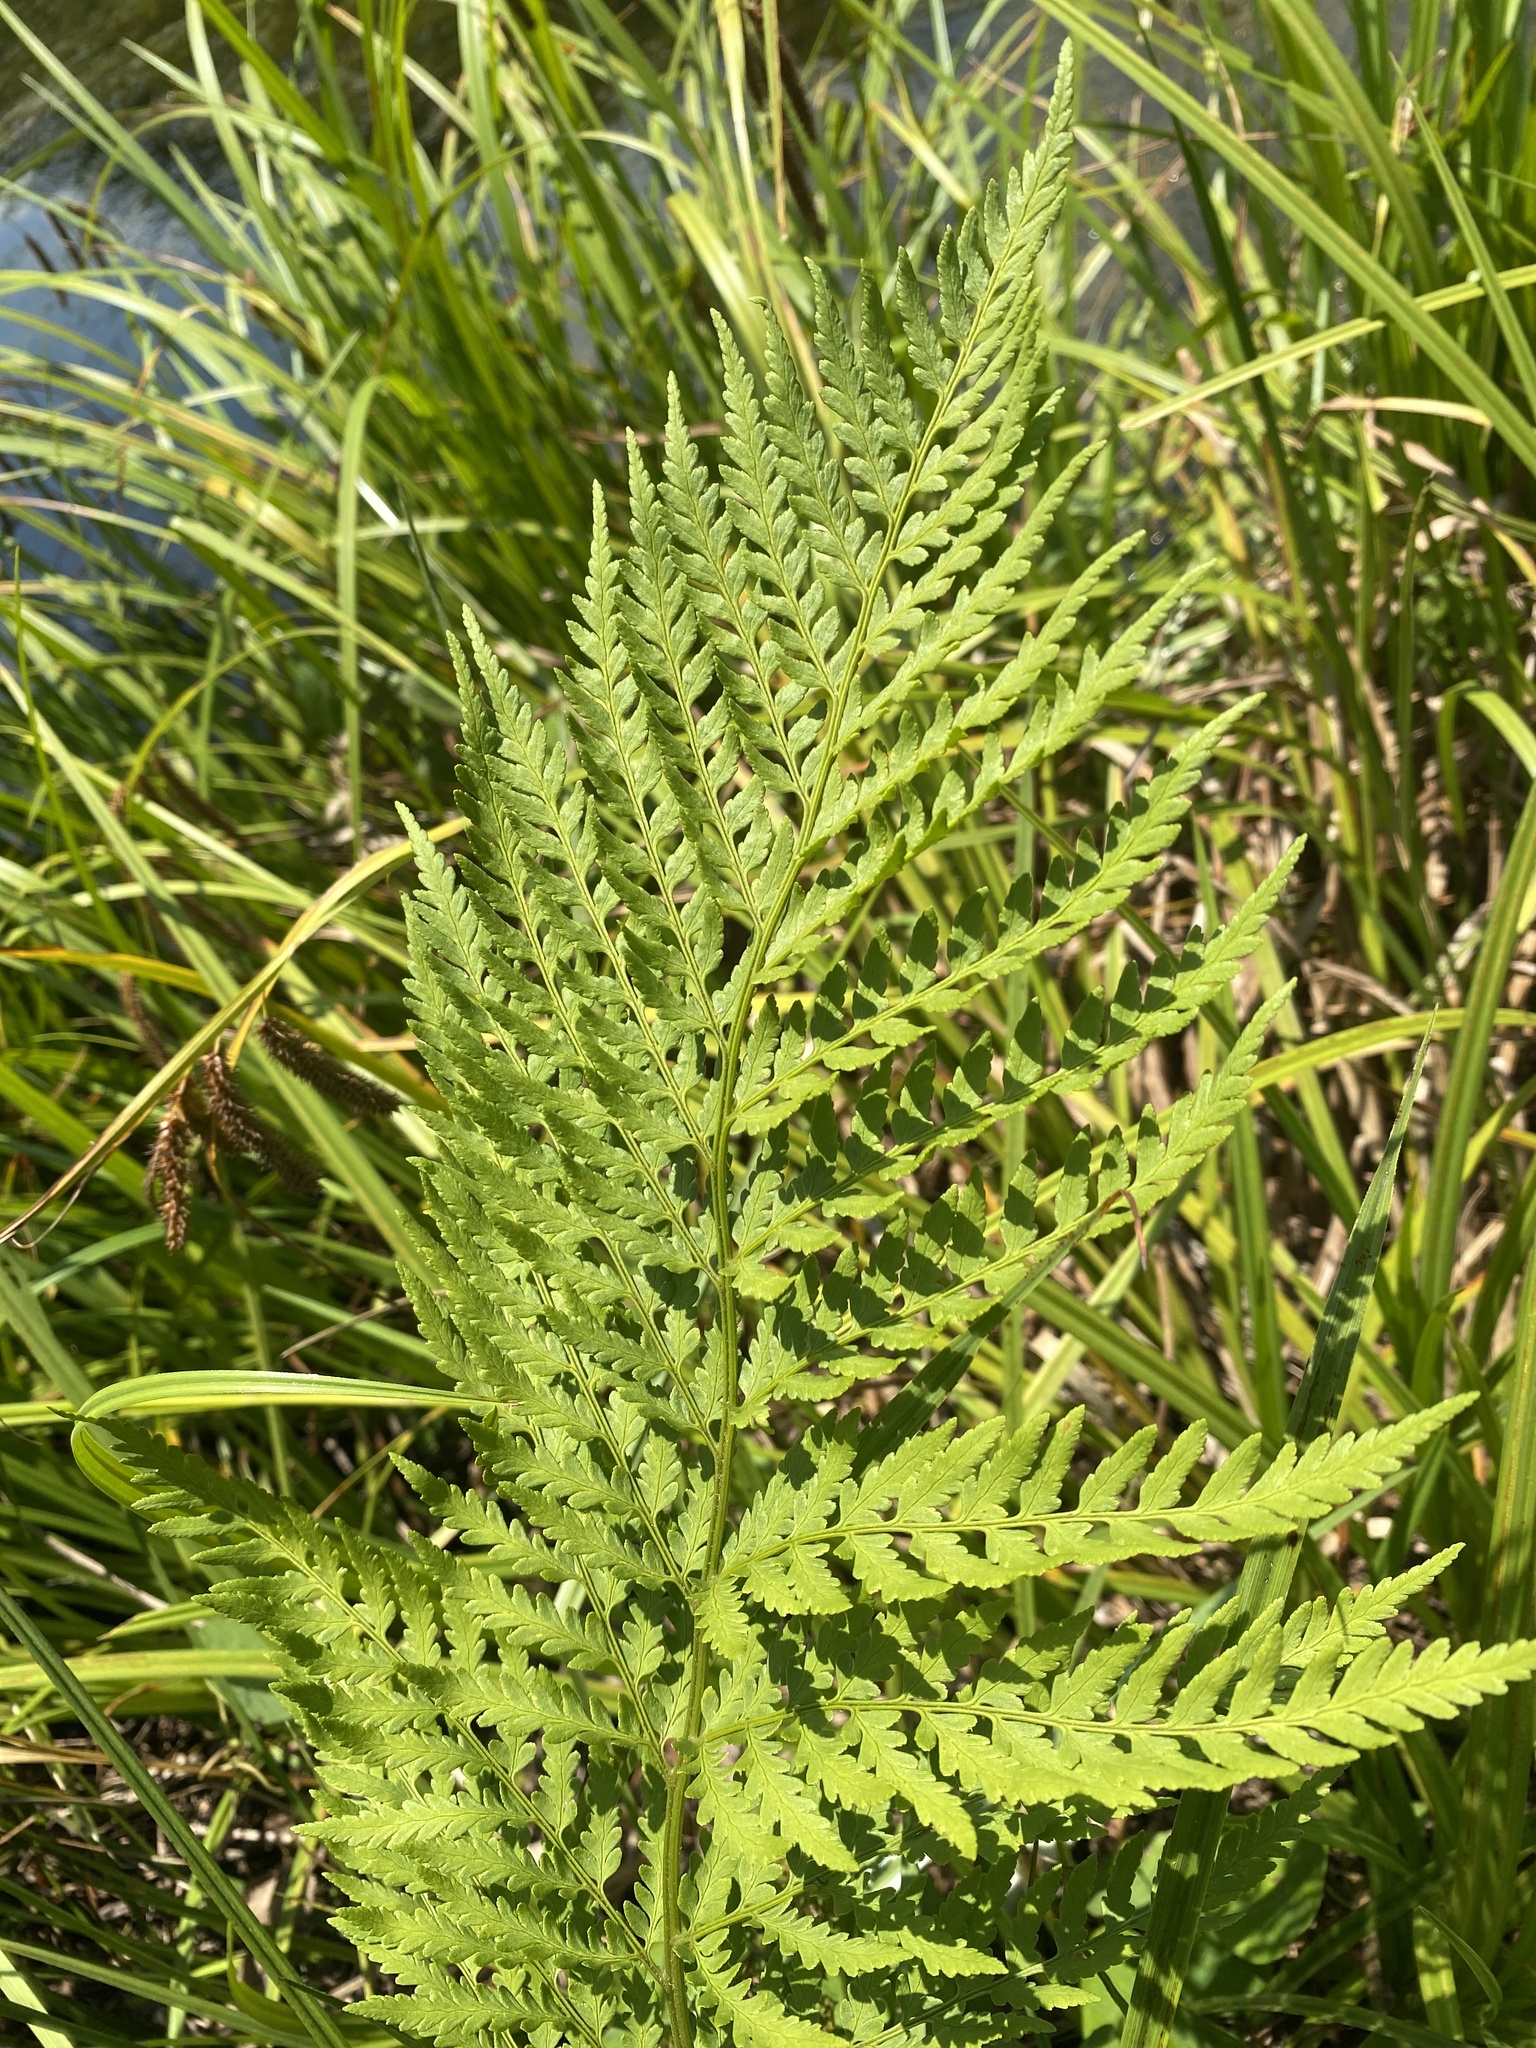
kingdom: Plantae
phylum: Tracheophyta
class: Polypodiopsida
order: Polypodiales
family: Dryopteridaceae
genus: Dryopteris
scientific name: Dryopteris athamantica
